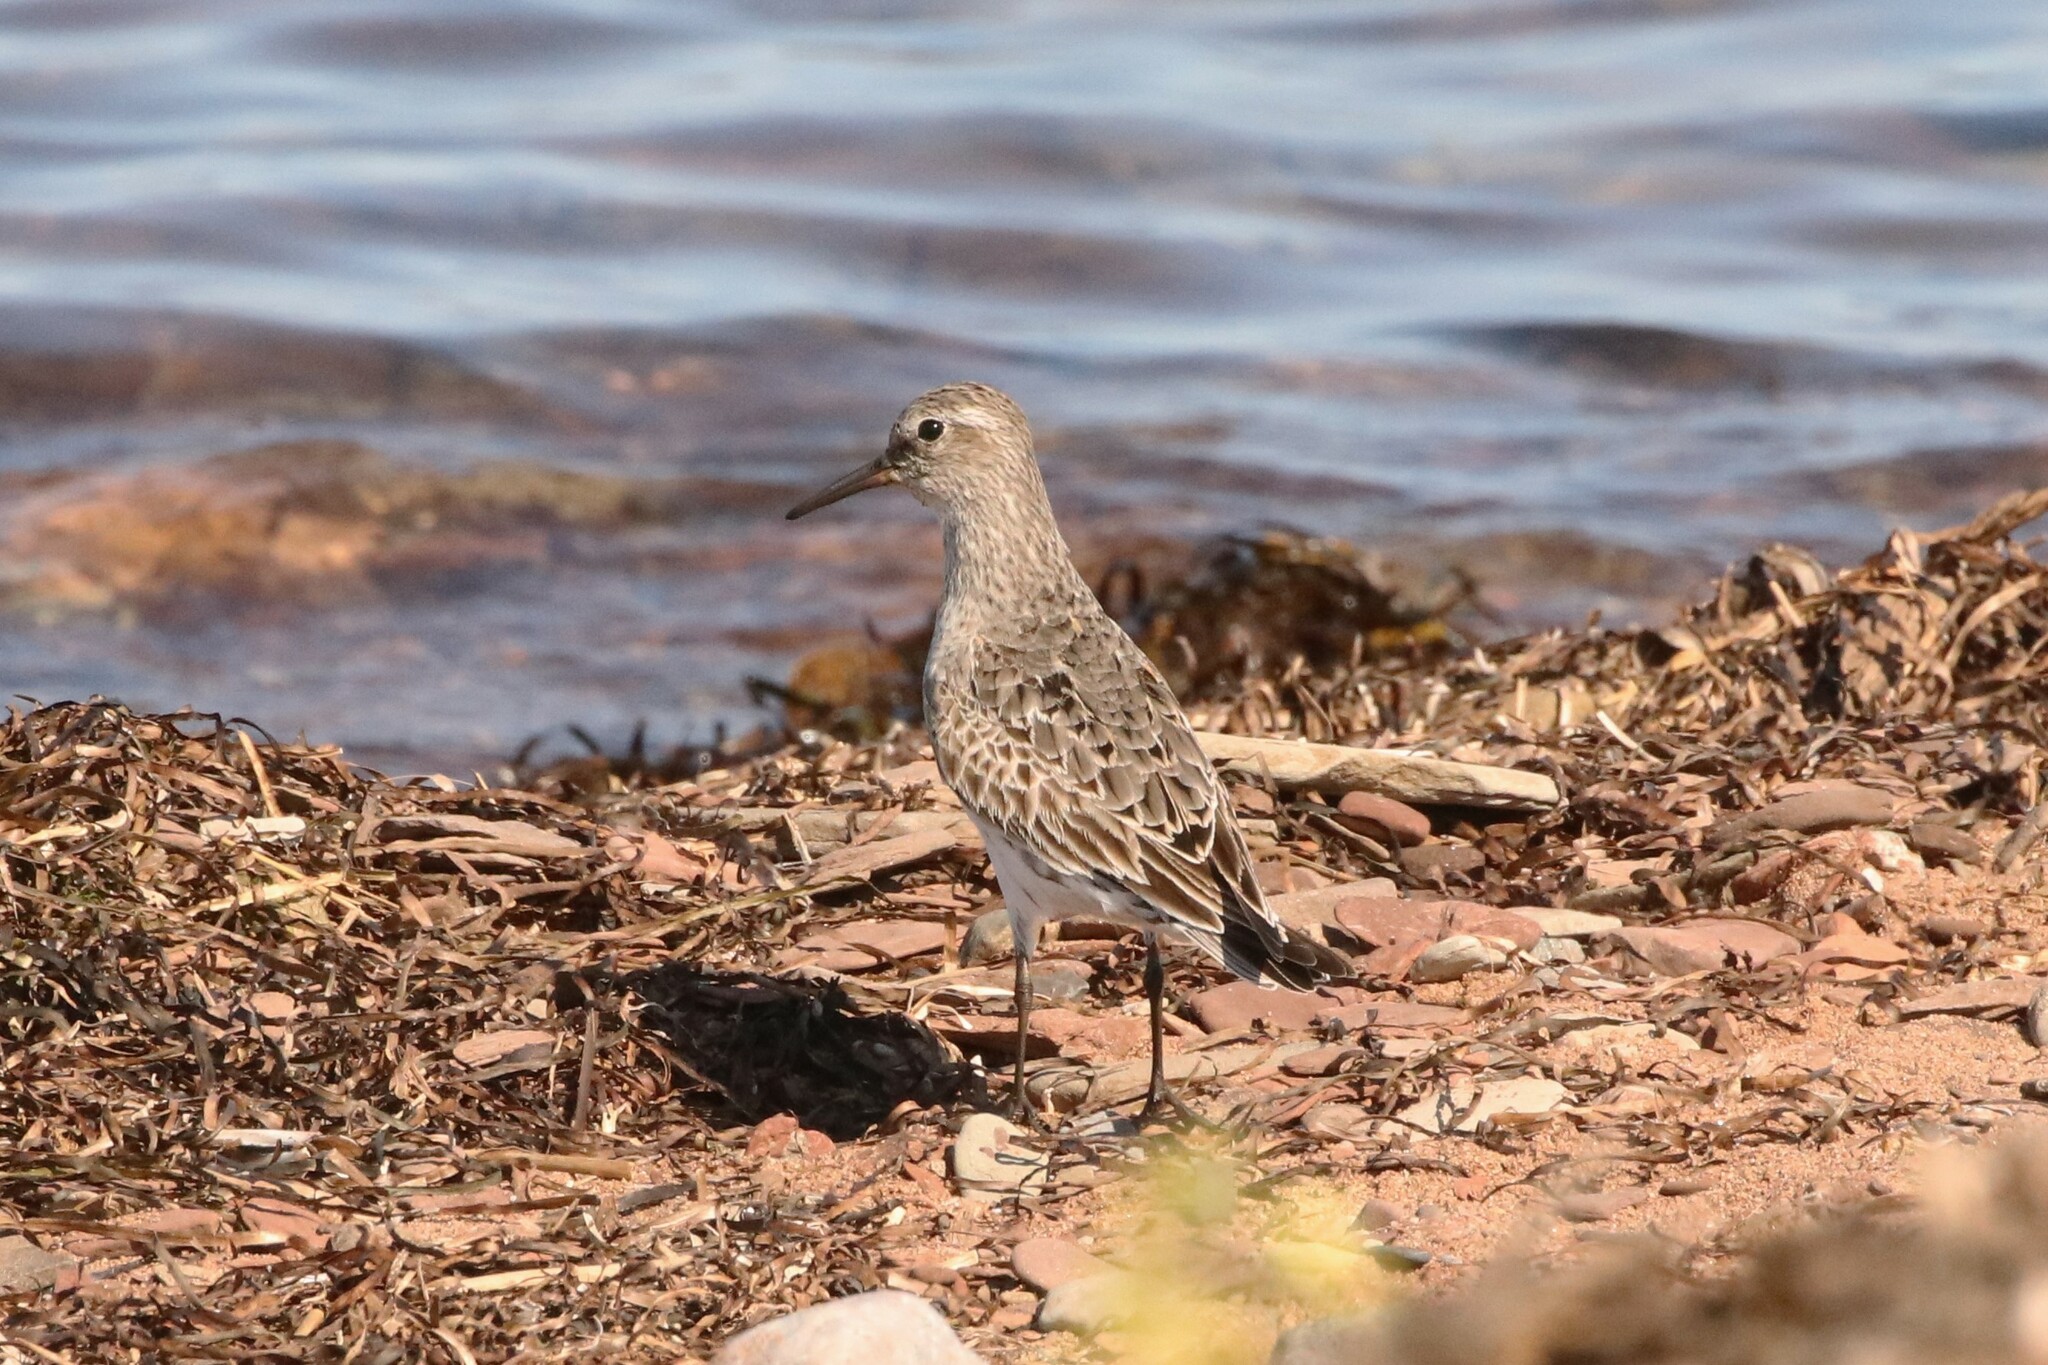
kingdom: Animalia
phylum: Chordata
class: Aves
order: Charadriiformes
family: Scolopacidae
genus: Calidris
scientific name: Calidris fuscicollis
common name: White-rumped sandpiper
